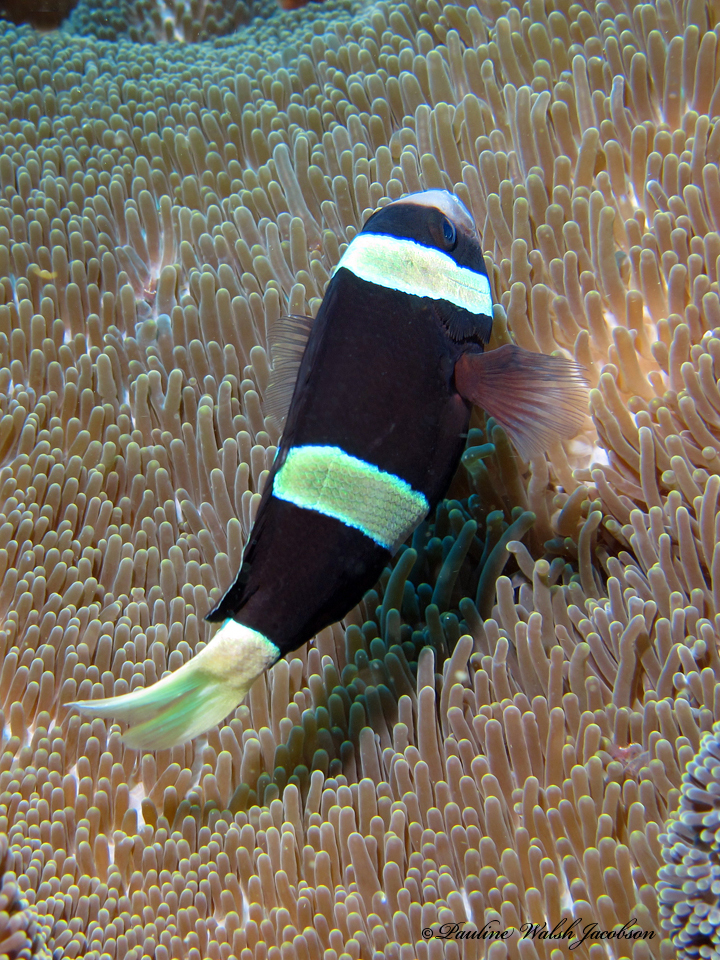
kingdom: Animalia
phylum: Chordata
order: Perciformes
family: Pomacentridae
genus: Amphiprion
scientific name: Amphiprion clarkii
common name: Clark's anemonefish
